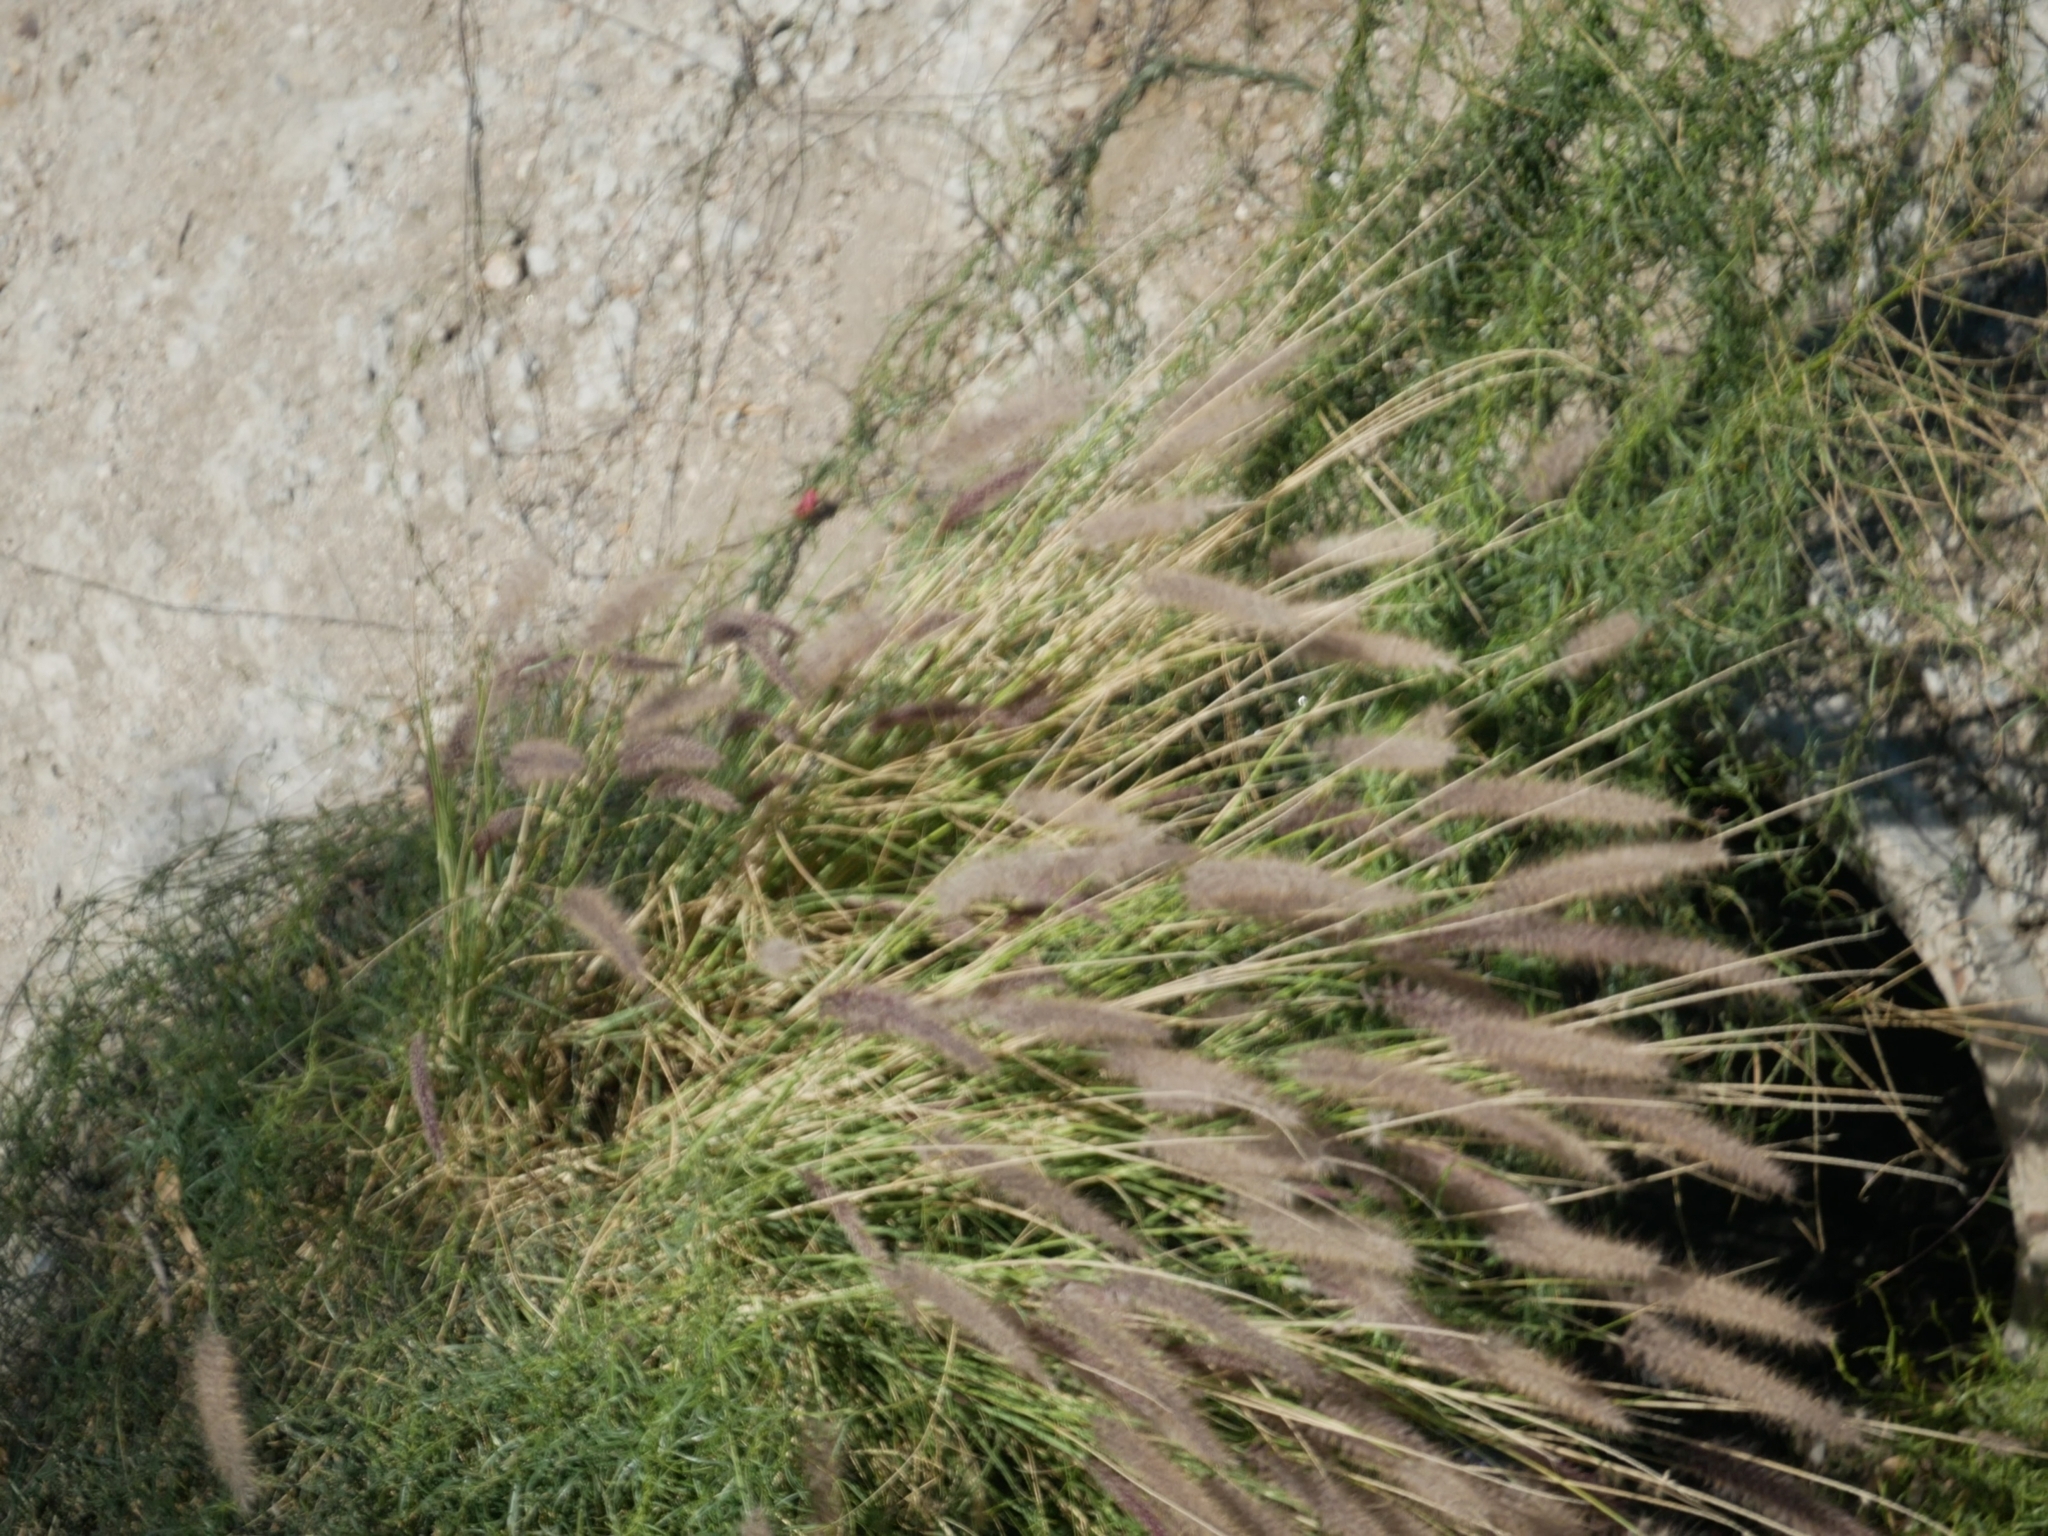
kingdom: Plantae
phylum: Tracheophyta
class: Liliopsida
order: Poales
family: Poaceae
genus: Cenchrus
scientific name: Cenchrus setaceus
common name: Crimson fountaingrass
